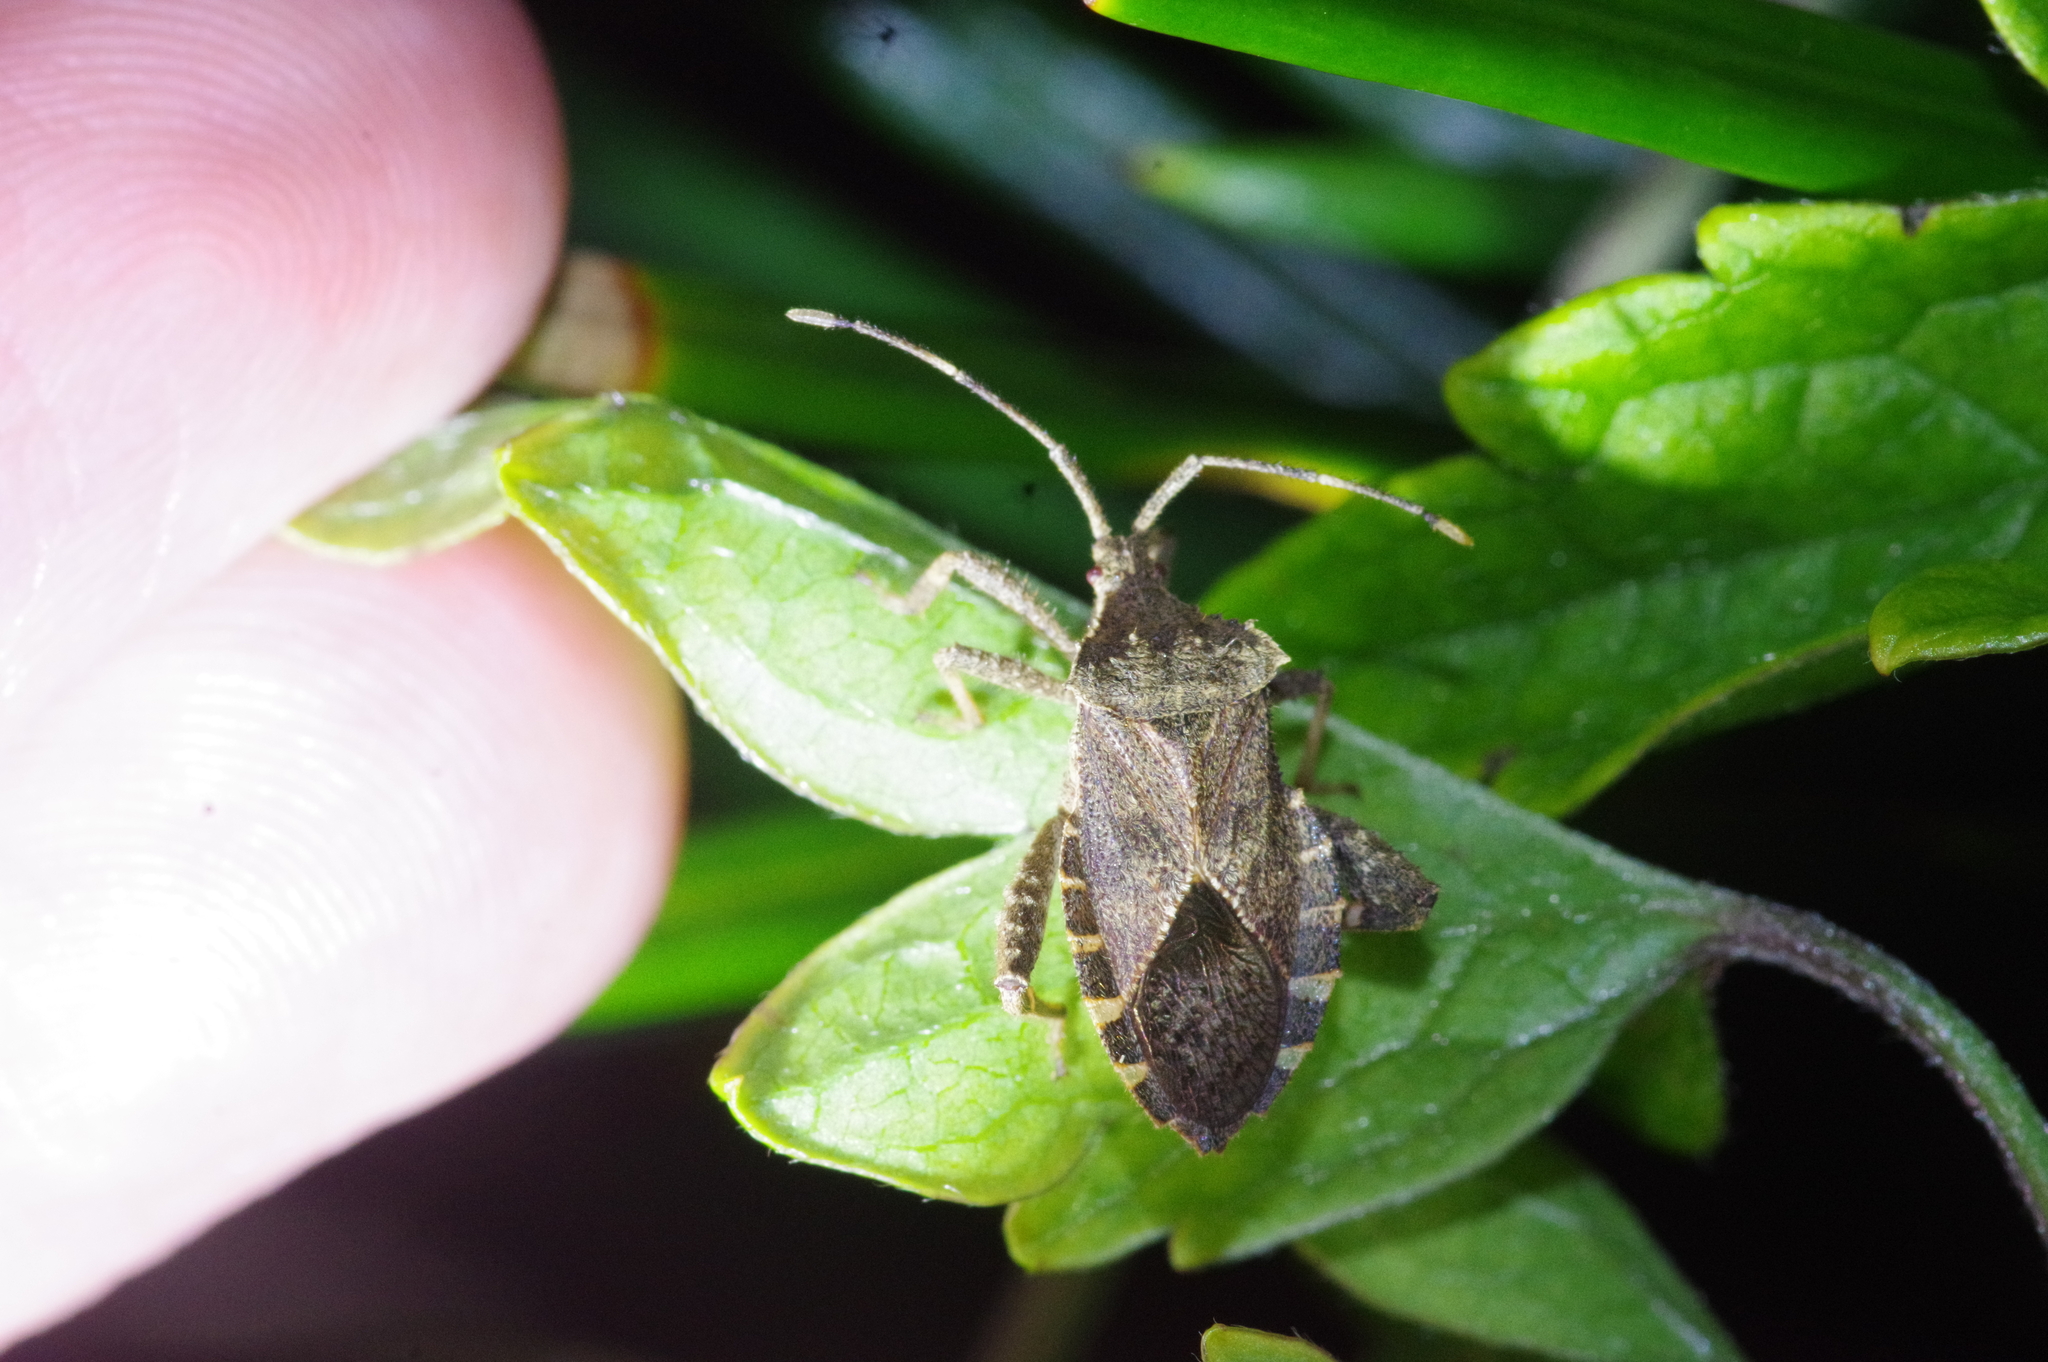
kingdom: Animalia
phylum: Arthropoda
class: Insecta
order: Hemiptera
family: Coreidae
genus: Acanthocoris
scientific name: Acanthocoris sordidus
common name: Winter cherry bug
